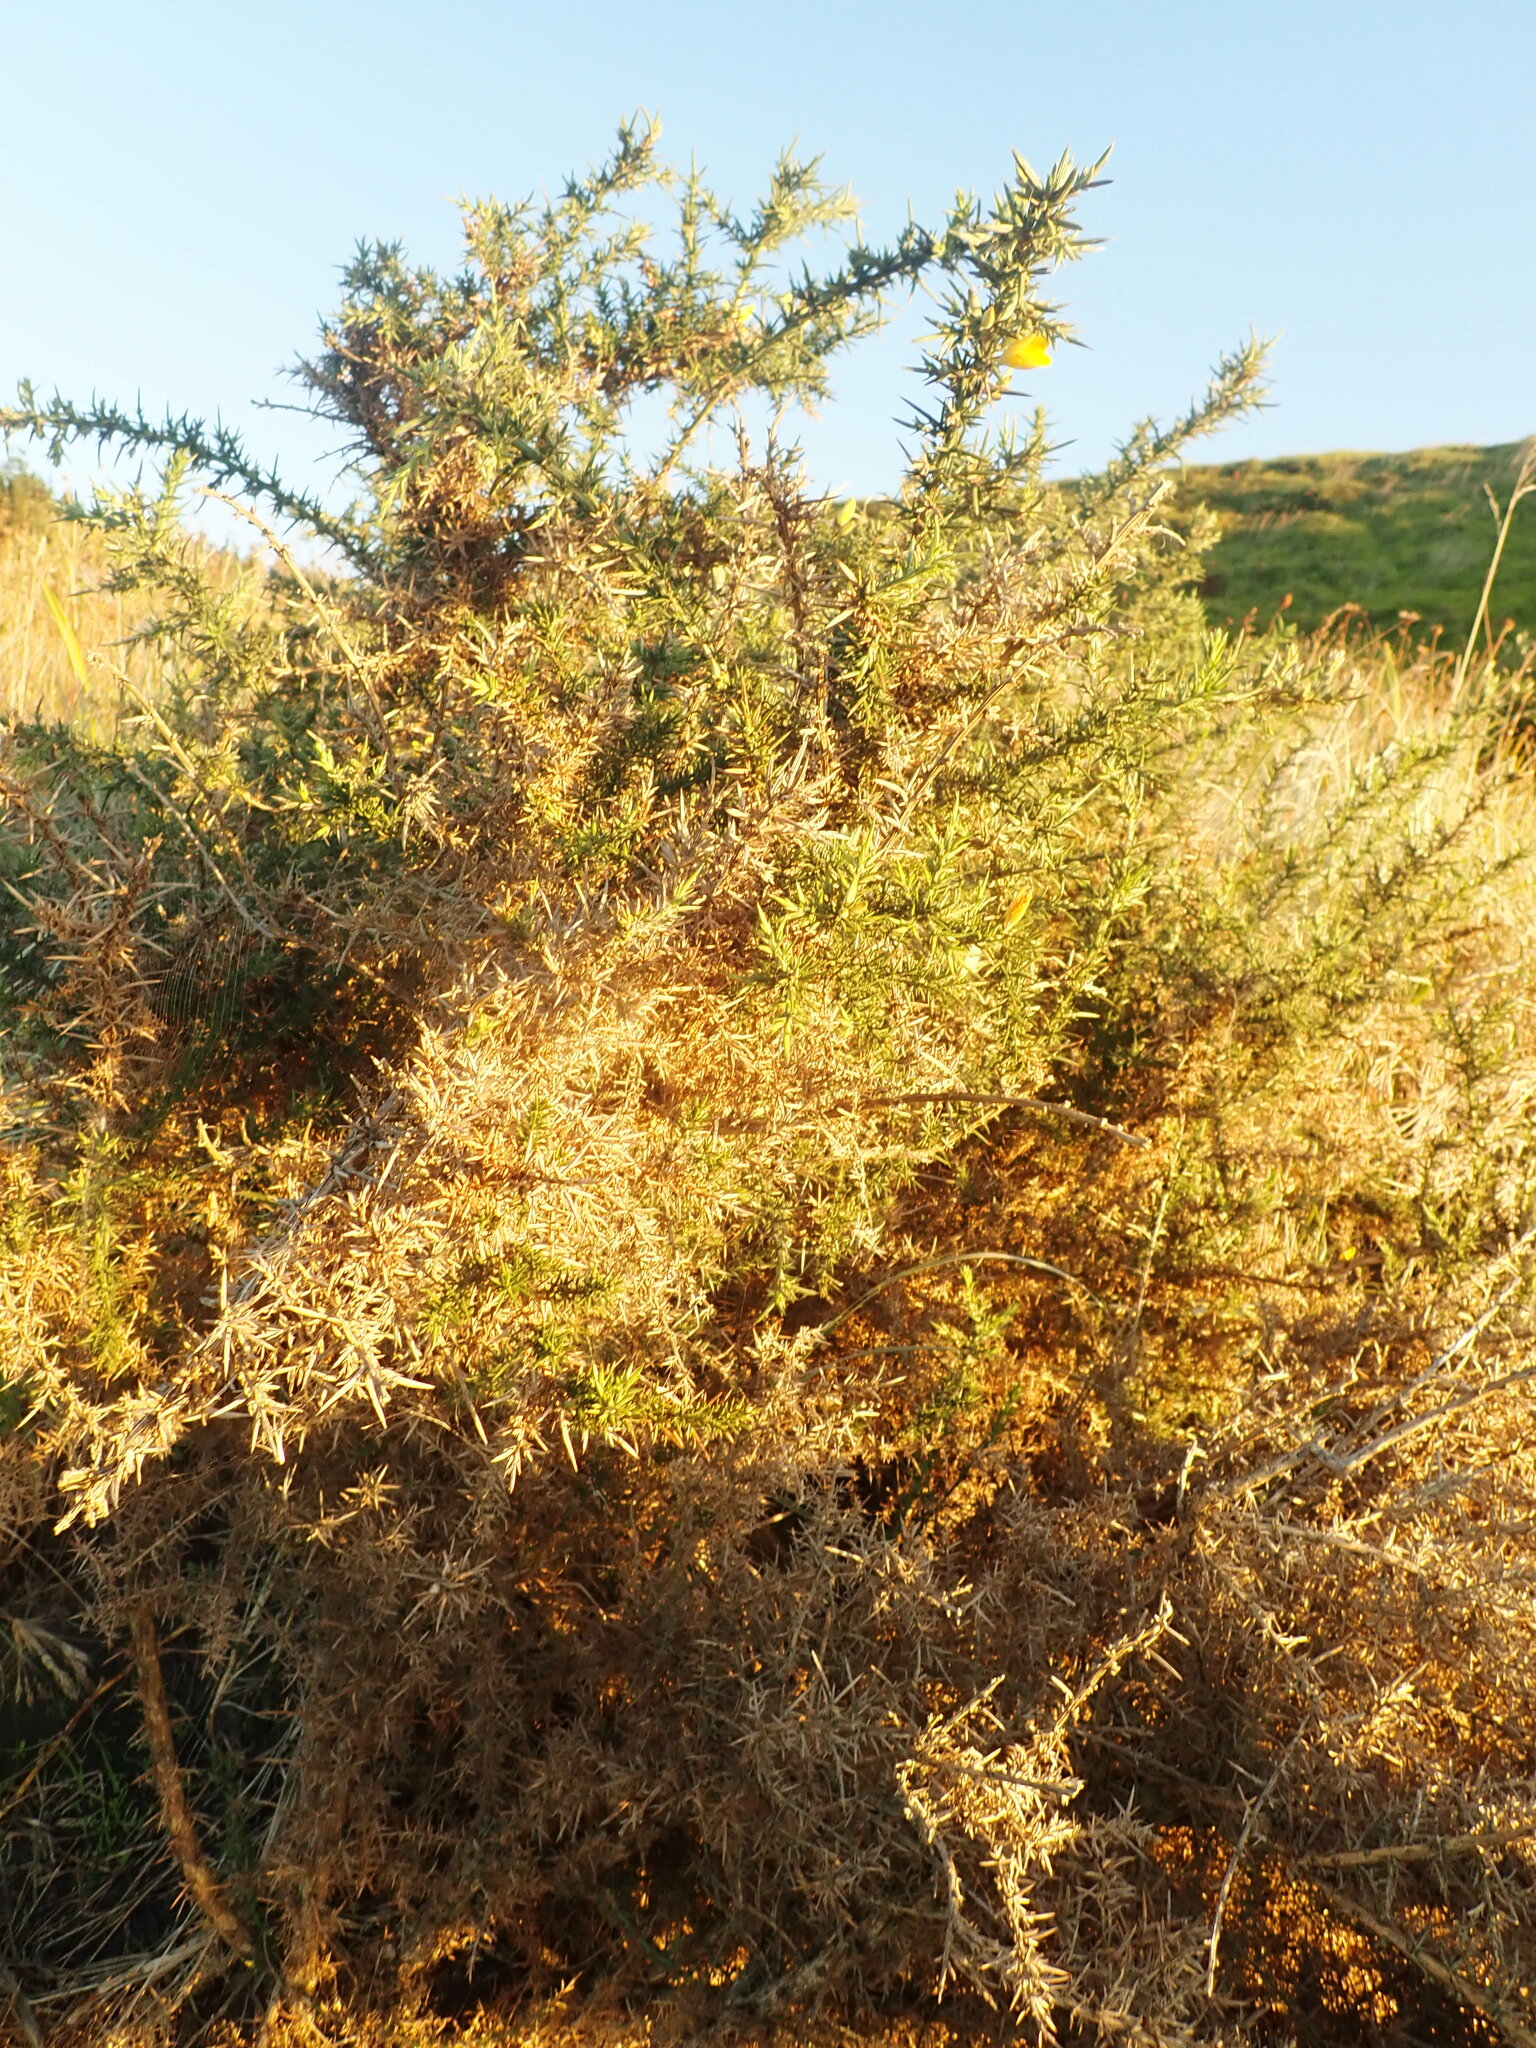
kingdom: Plantae
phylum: Tracheophyta
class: Magnoliopsida
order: Fabales
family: Fabaceae
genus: Ulex
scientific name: Ulex europaeus
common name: Common gorse
